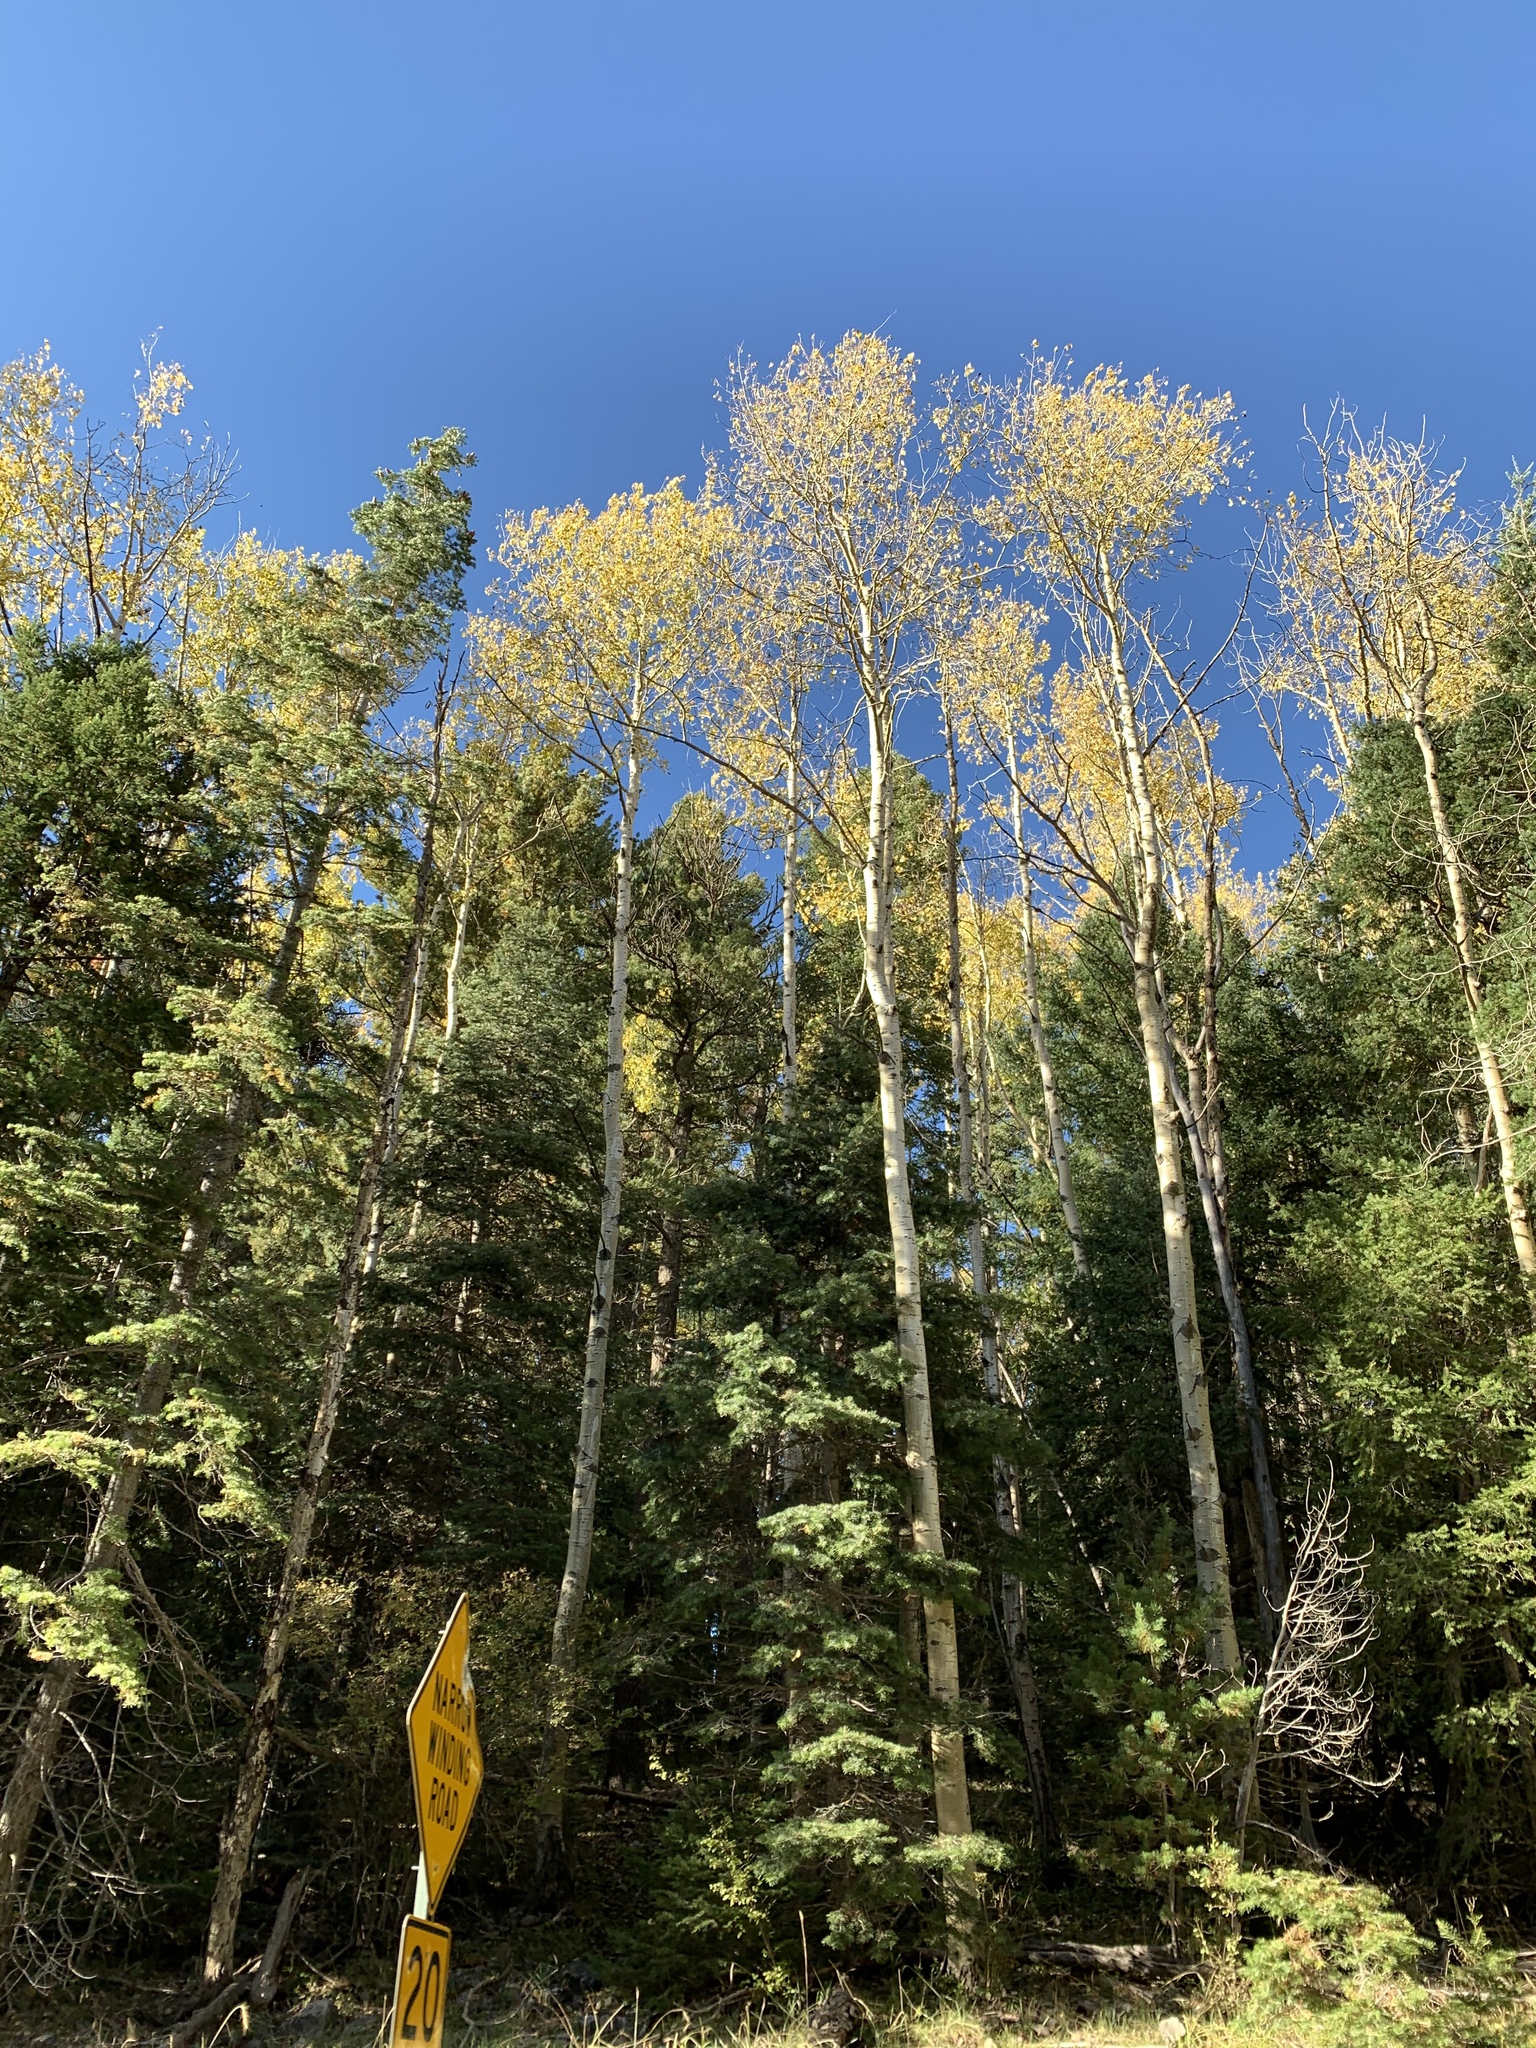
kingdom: Plantae
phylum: Tracheophyta
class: Magnoliopsida
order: Malpighiales
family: Salicaceae
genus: Populus
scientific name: Populus tremuloides
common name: Quaking aspen
